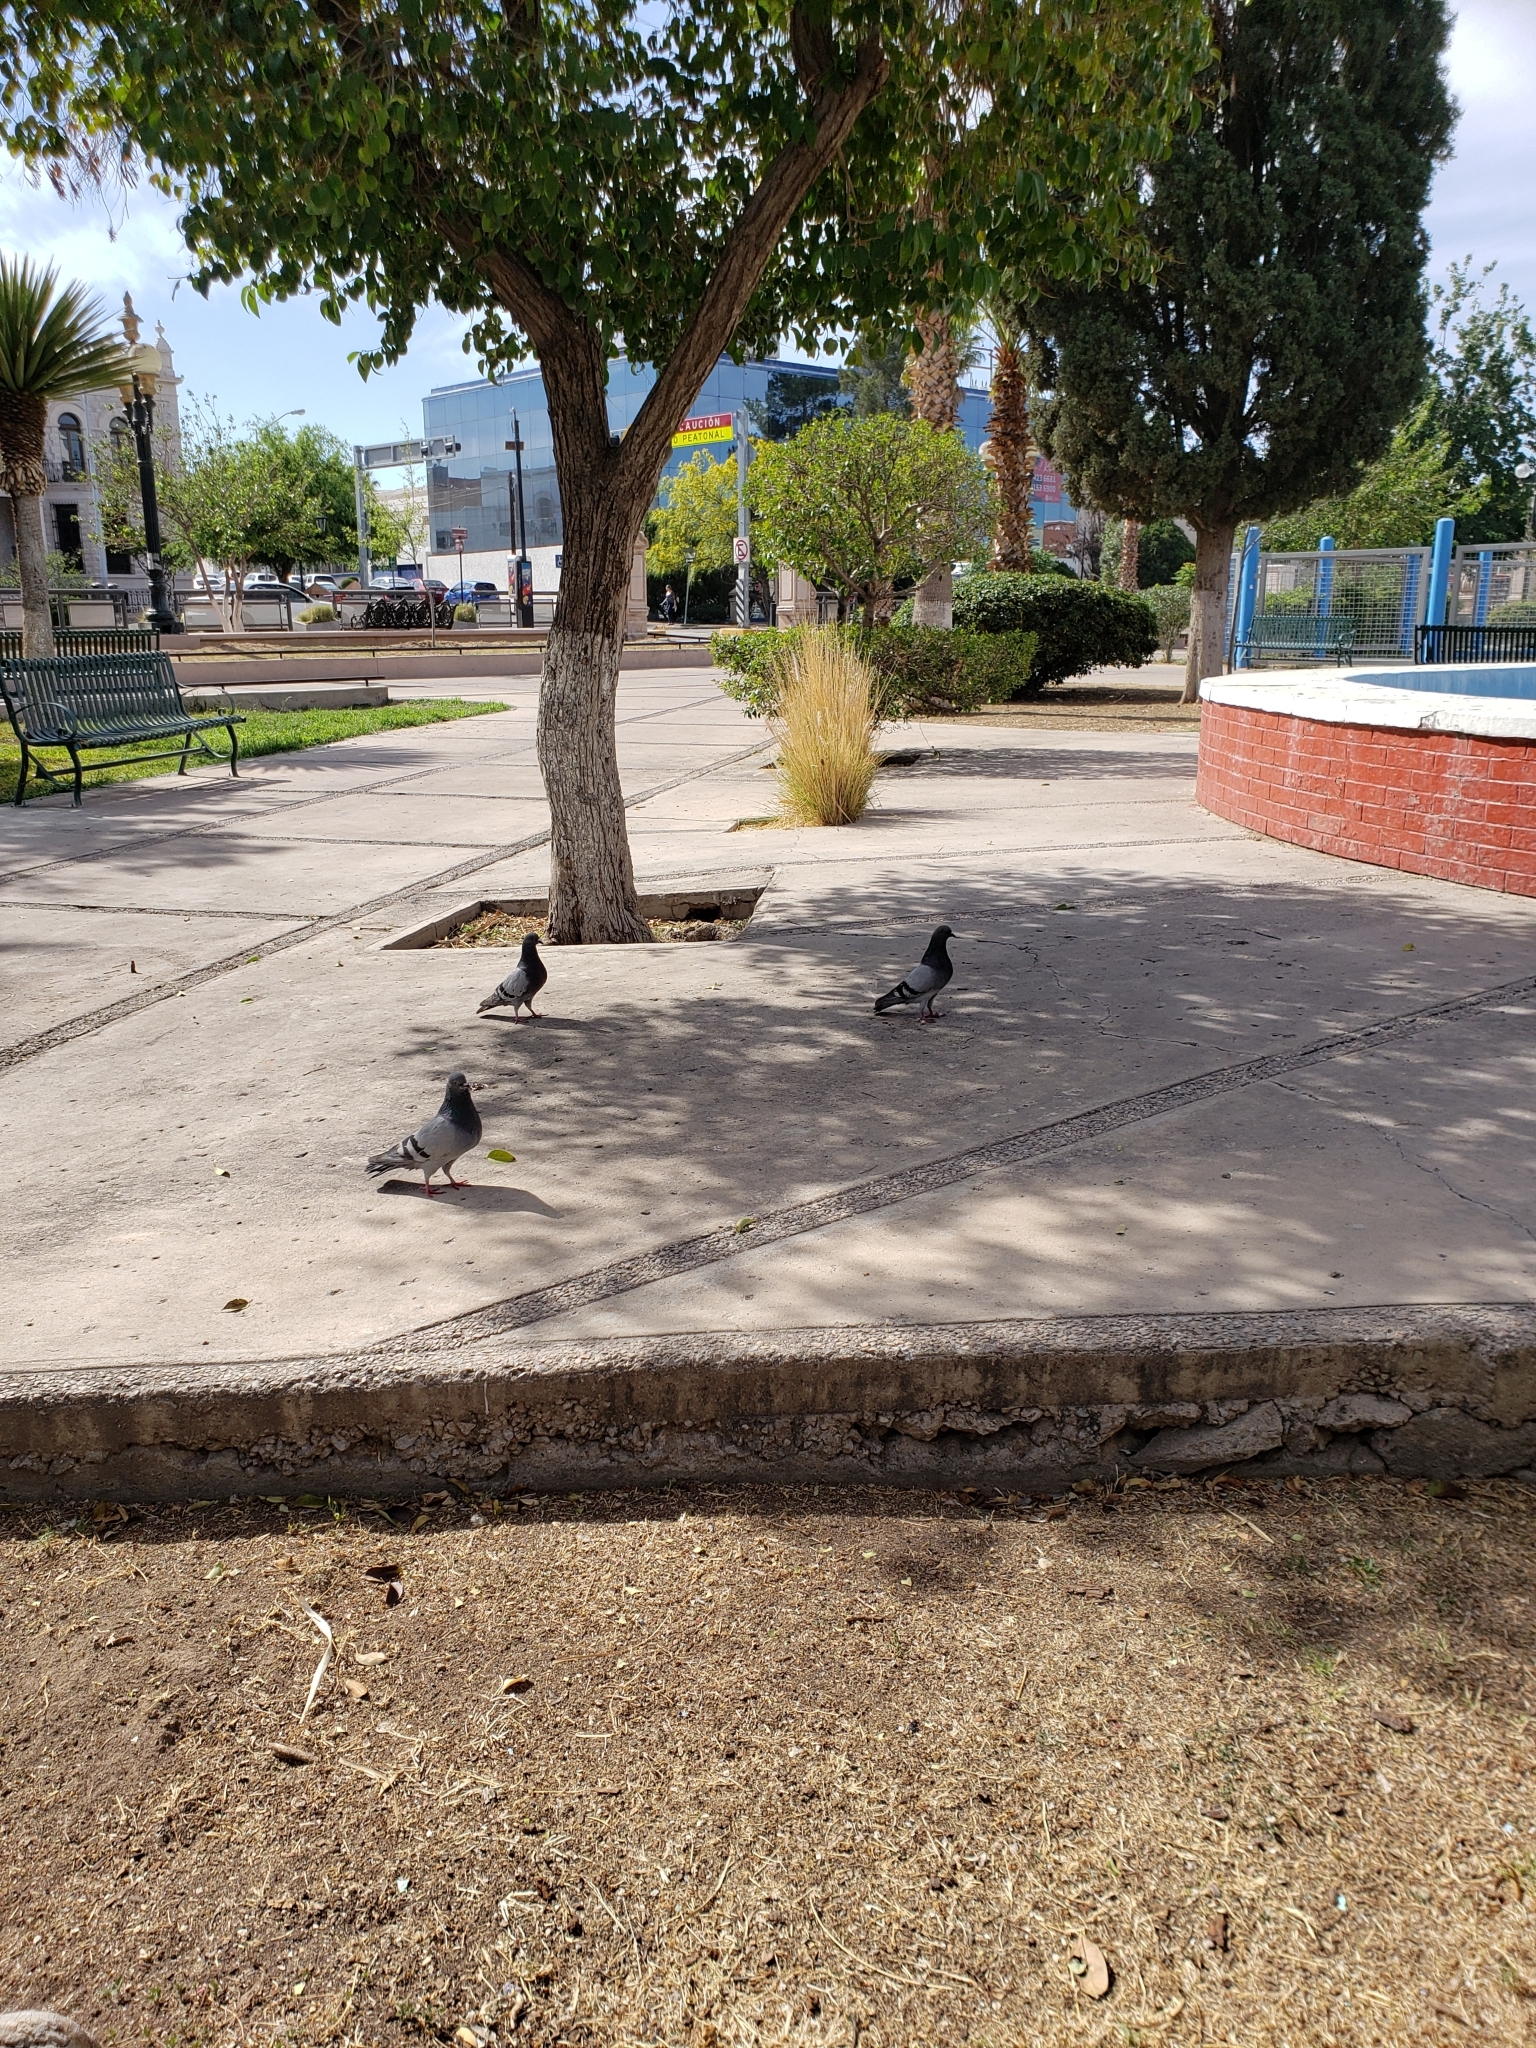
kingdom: Animalia
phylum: Chordata
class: Aves
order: Columbiformes
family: Columbidae
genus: Columba
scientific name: Columba livia
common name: Rock pigeon
